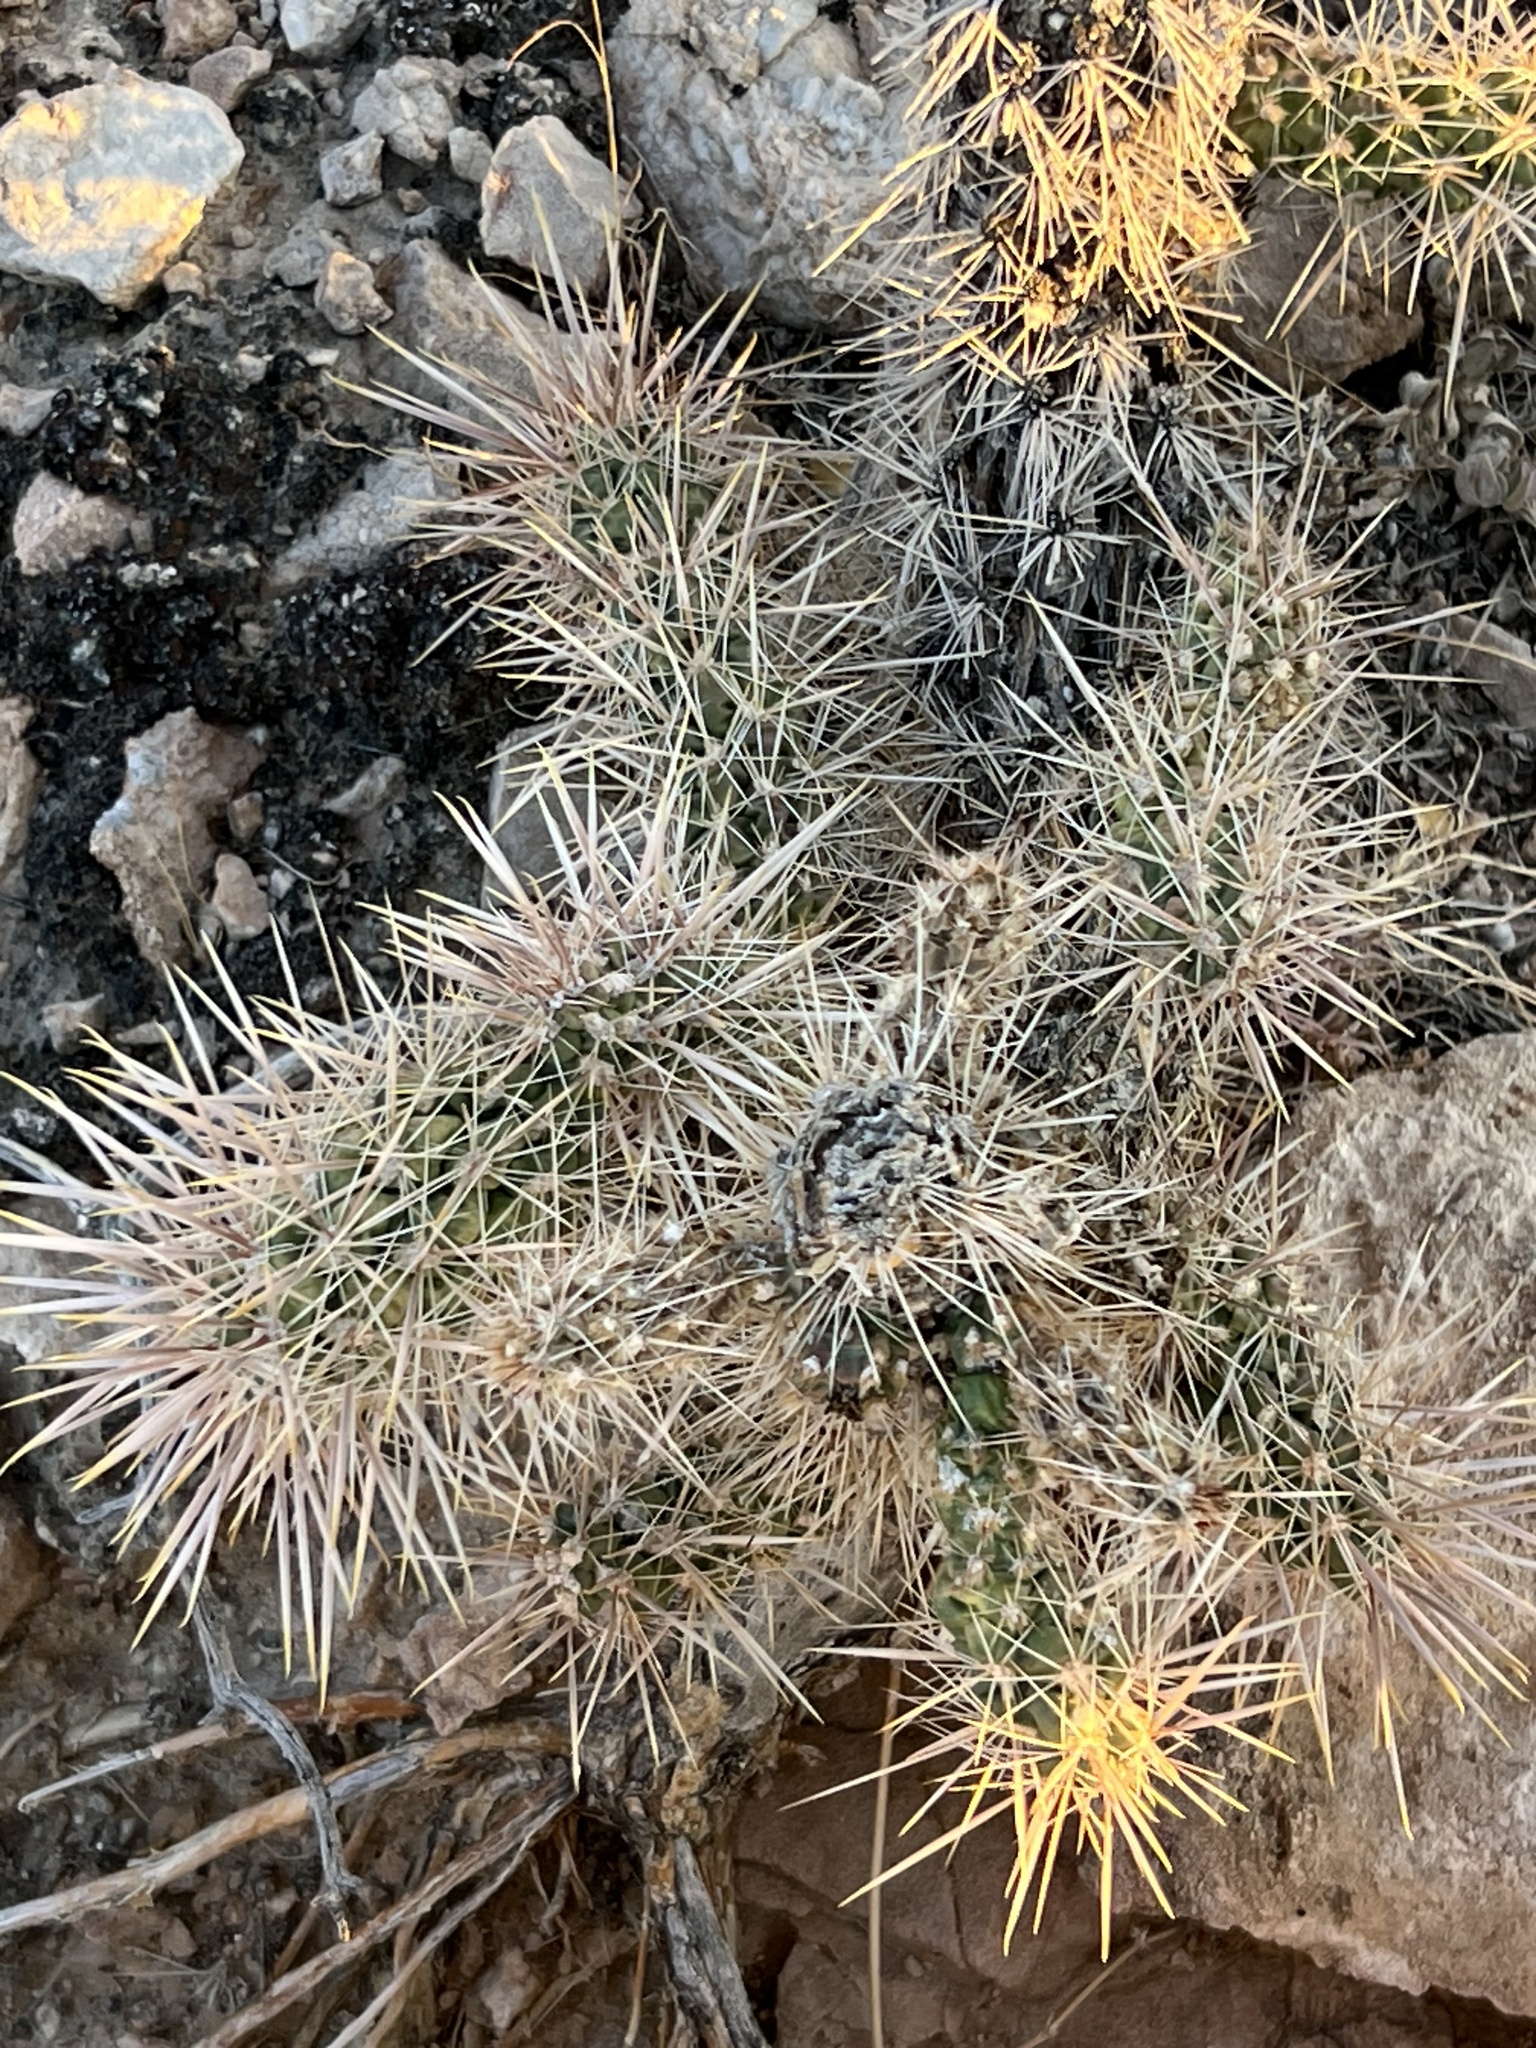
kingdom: Plantae
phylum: Tracheophyta
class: Magnoliopsida
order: Caryophyllales
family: Cactaceae
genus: Cylindropuntia
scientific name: Cylindropuntia echinocarpa
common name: Ground cholla
